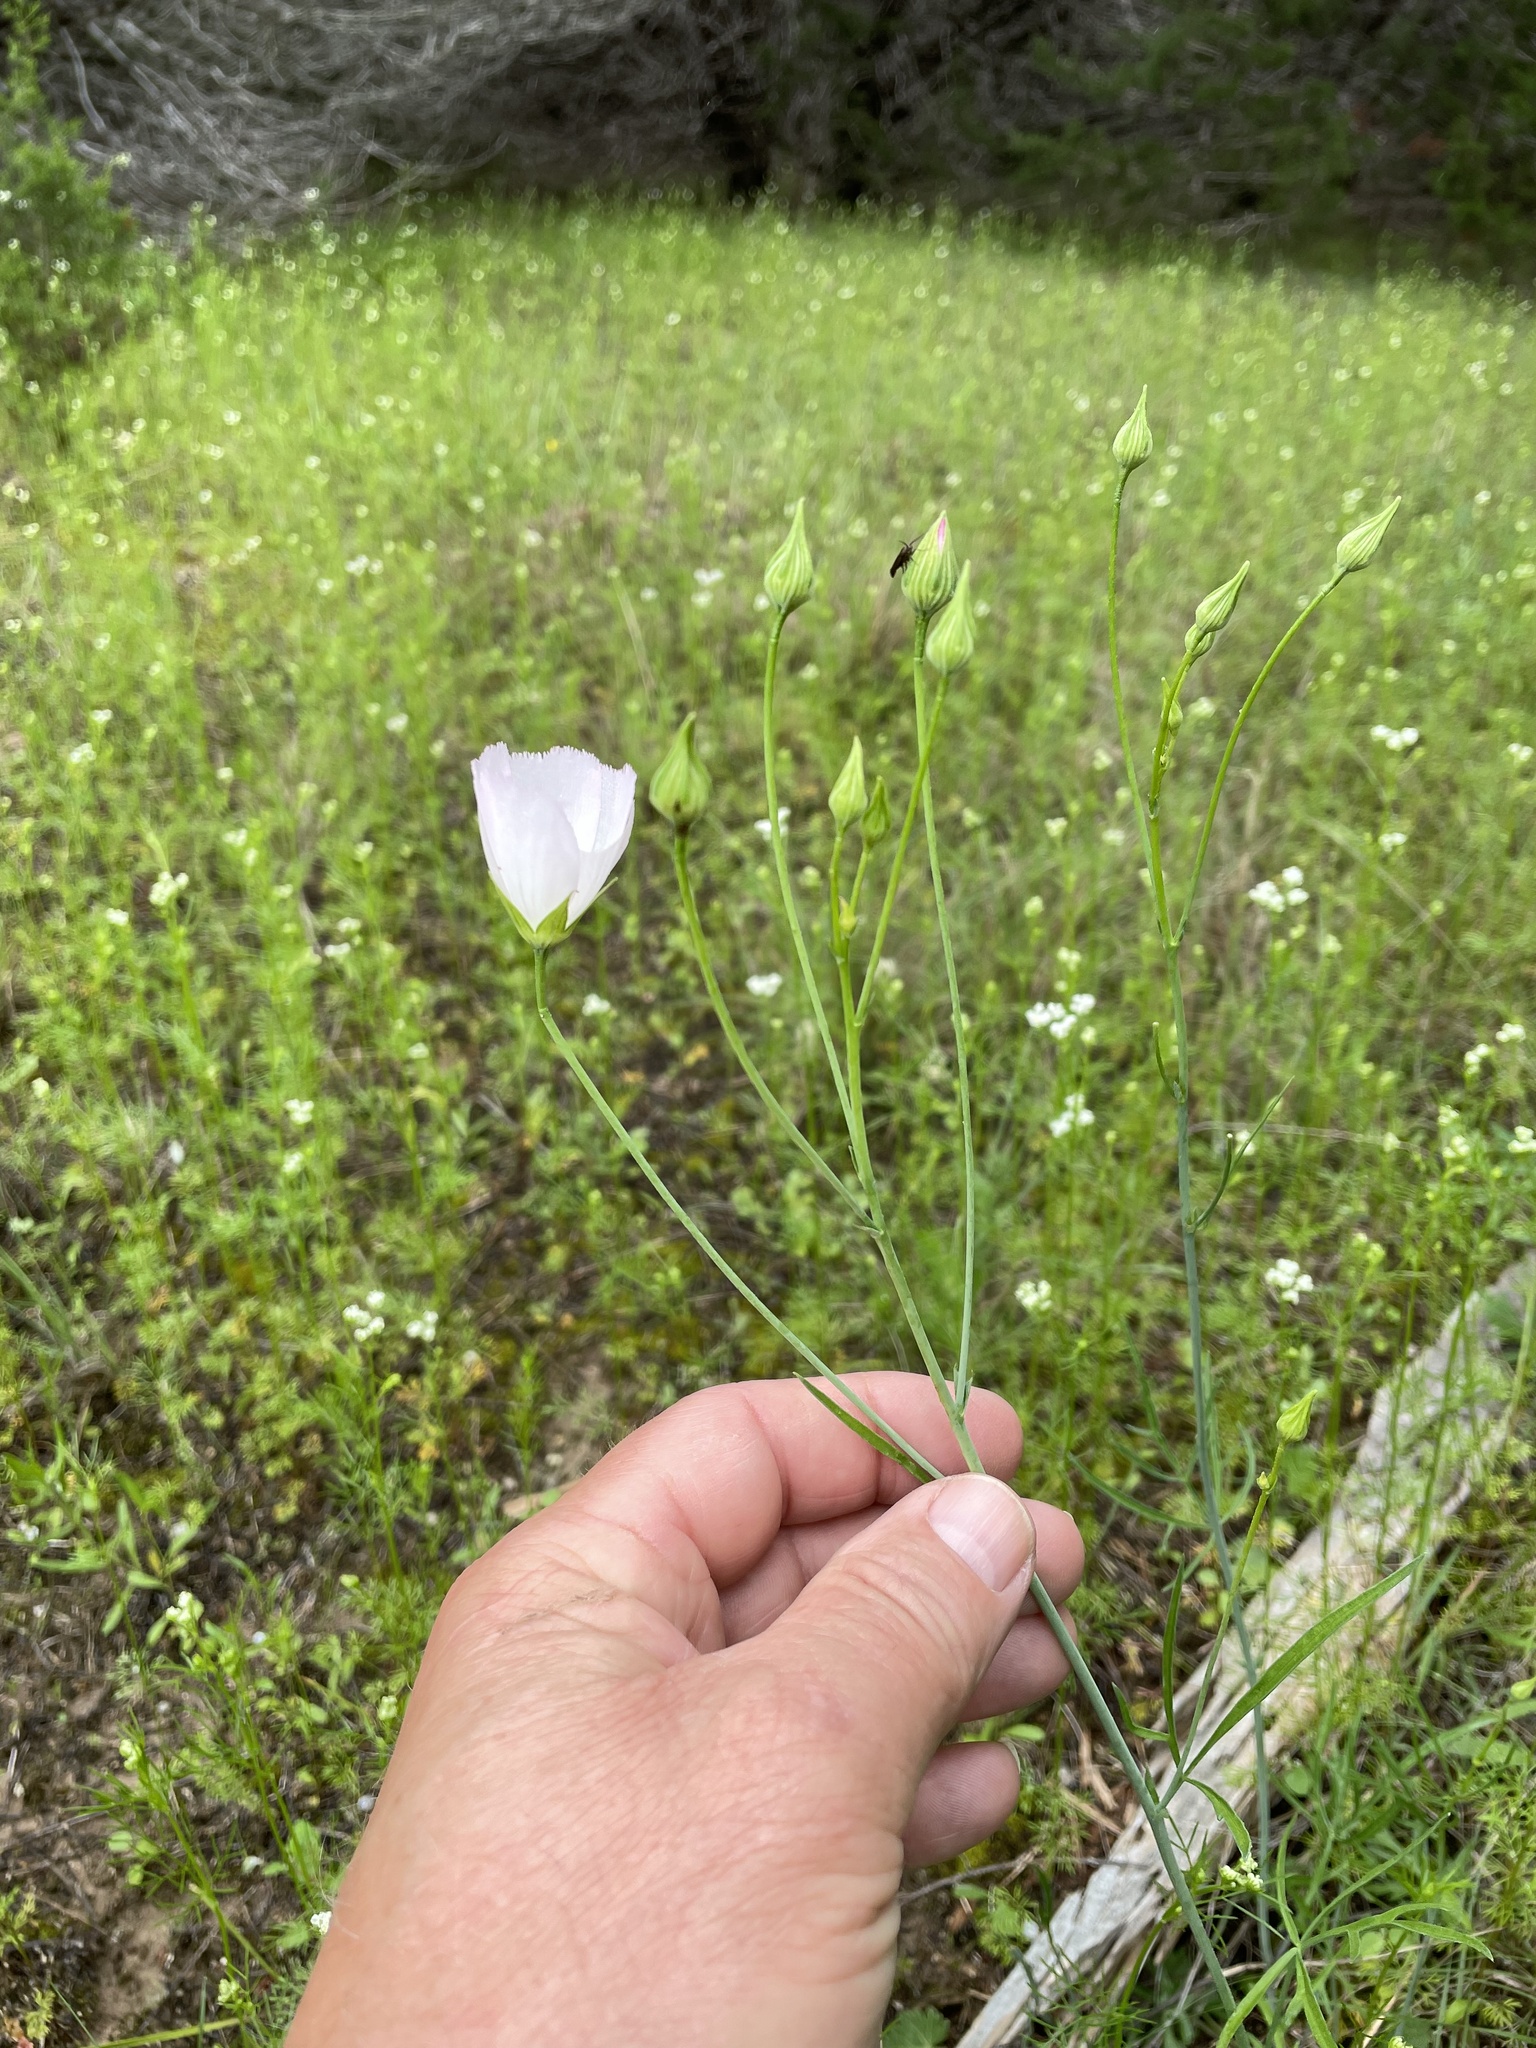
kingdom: Plantae
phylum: Tracheophyta
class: Magnoliopsida
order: Malvales
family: Malvaceae
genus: Callirhoe
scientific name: Callirhoe pedata
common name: Finger poppy-mallow
